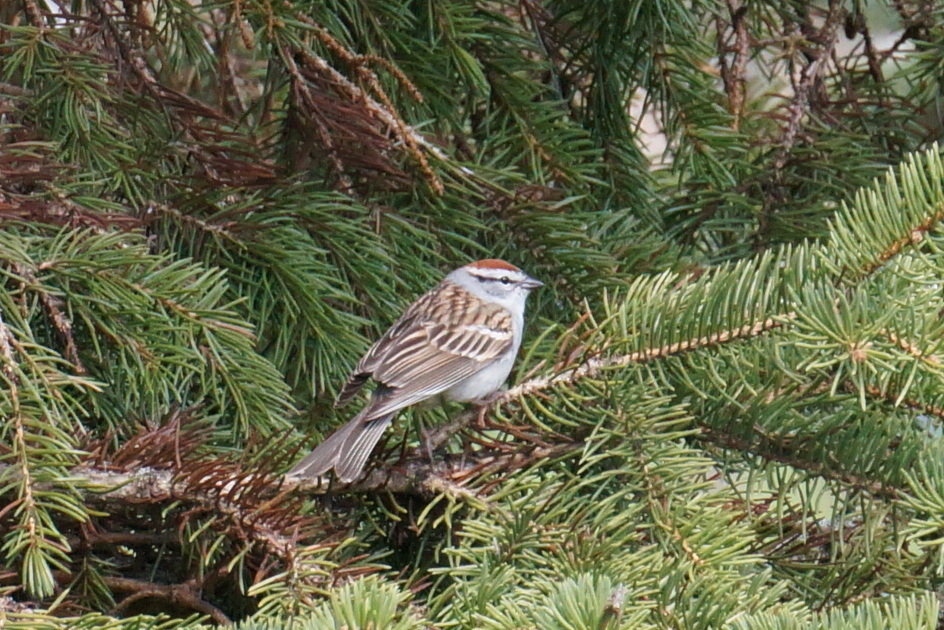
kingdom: Animalia
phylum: Chordata
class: Aves
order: Passeriformes
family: Passerellidae
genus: Spizella
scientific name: Spizella passerina
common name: Chipping sparrow
